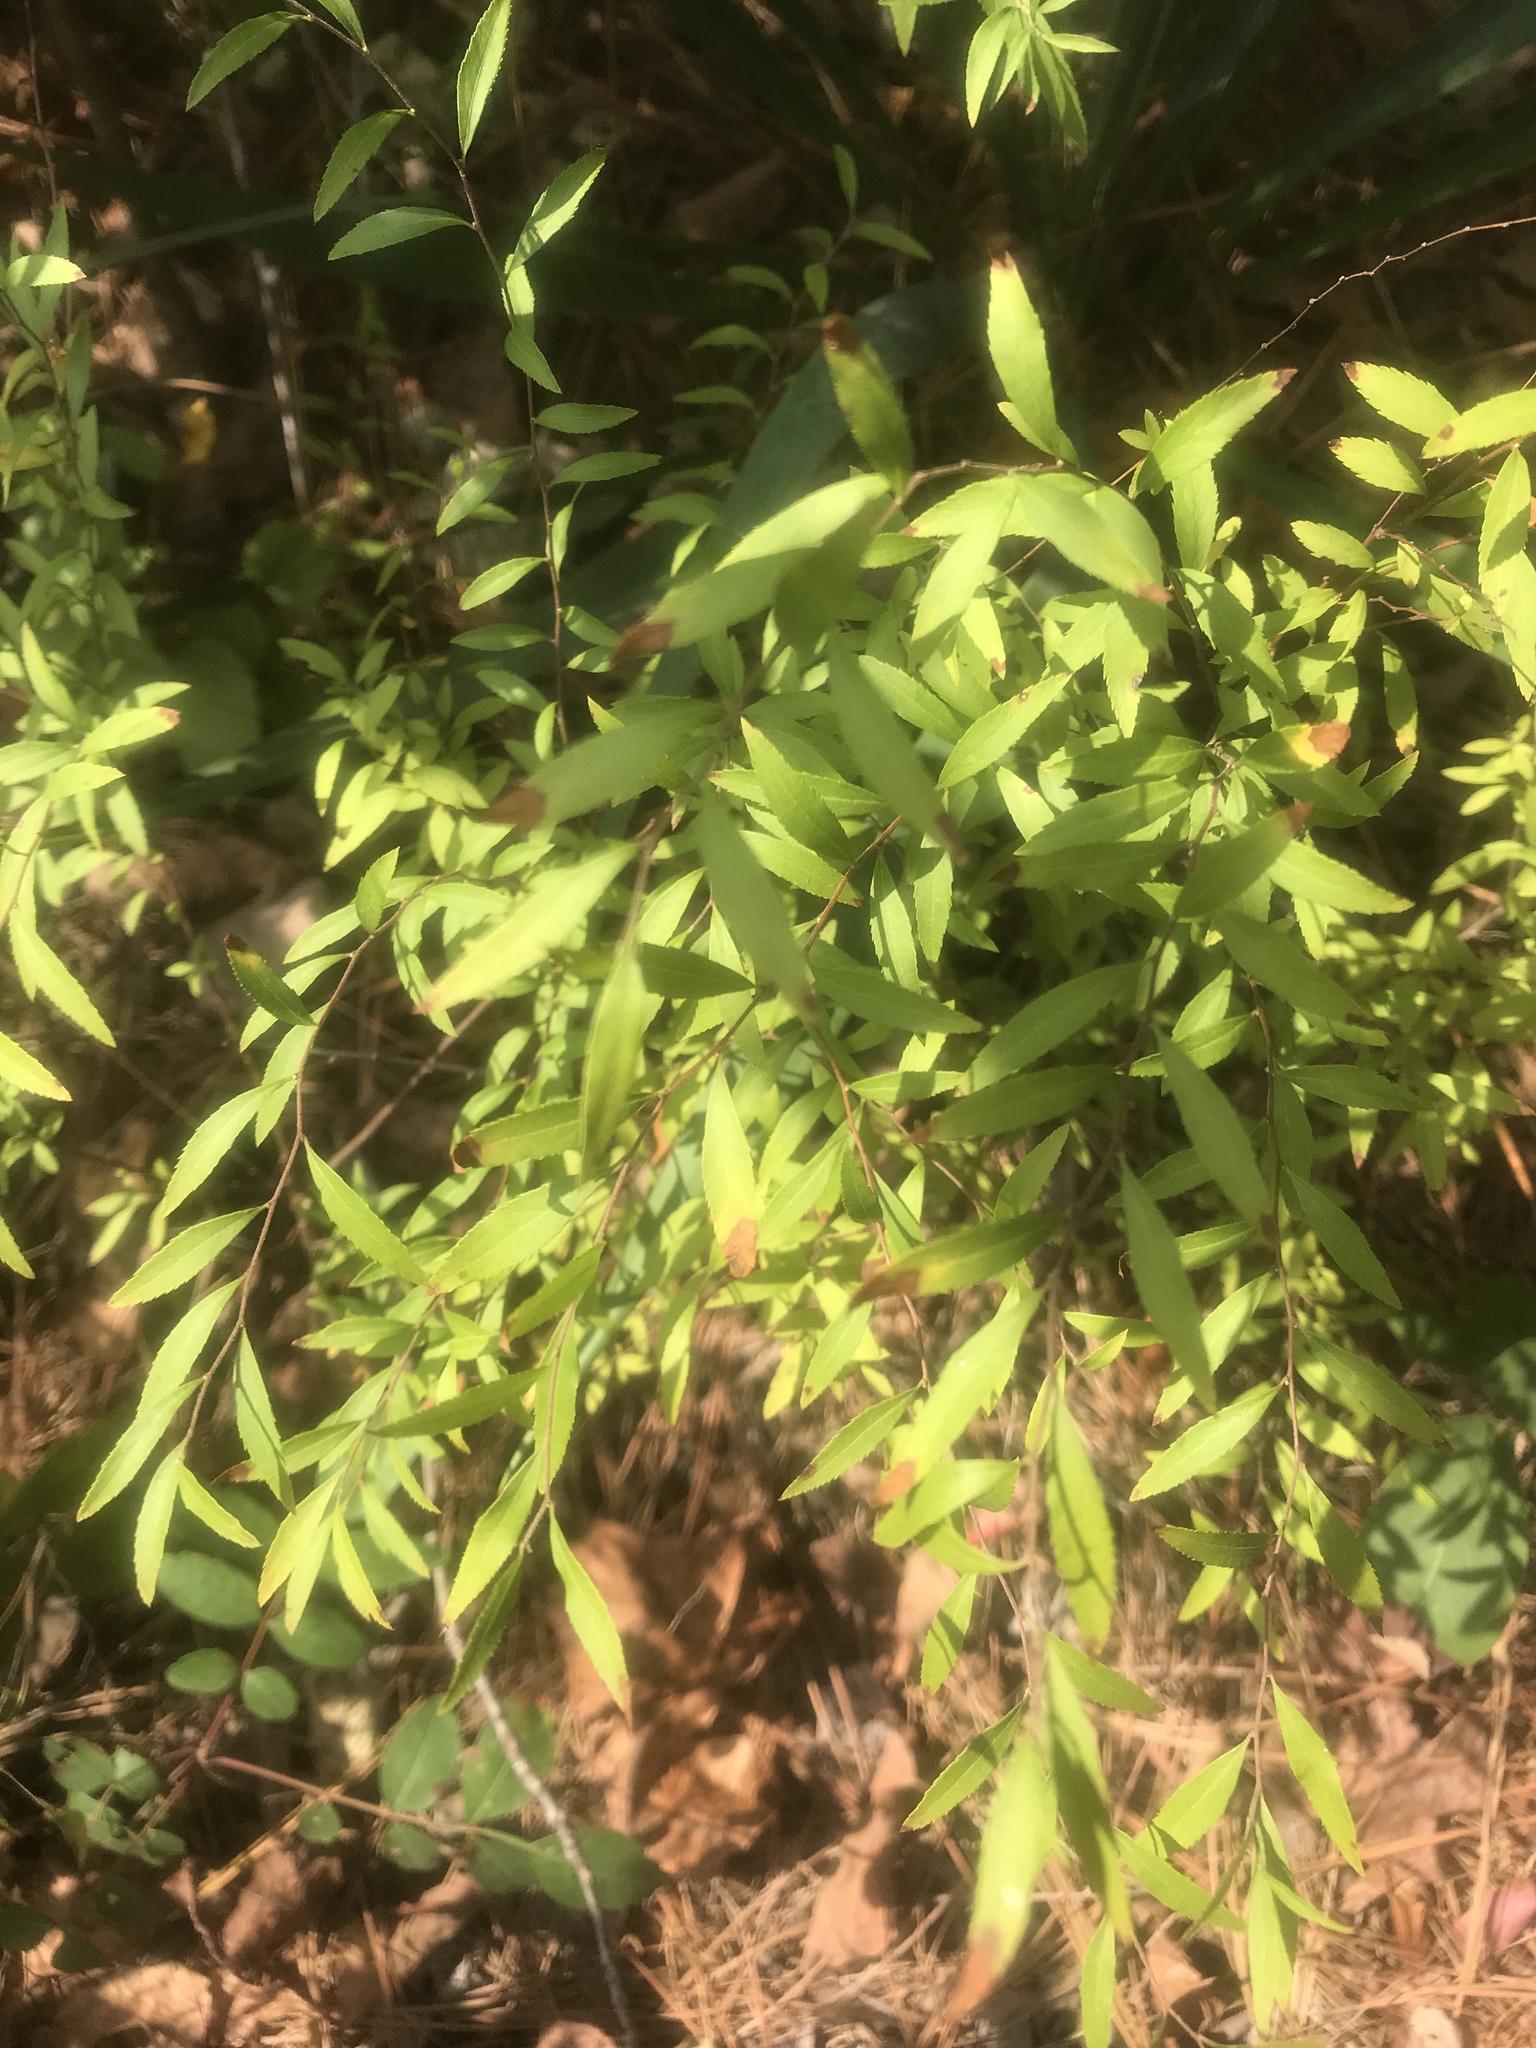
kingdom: Plantae
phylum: Tracheophyta
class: Magnoliopsida
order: Rosales
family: Rosaceae
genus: Spiraea
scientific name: Spiraea thunbergii
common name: Thunberg's meadowsweet
